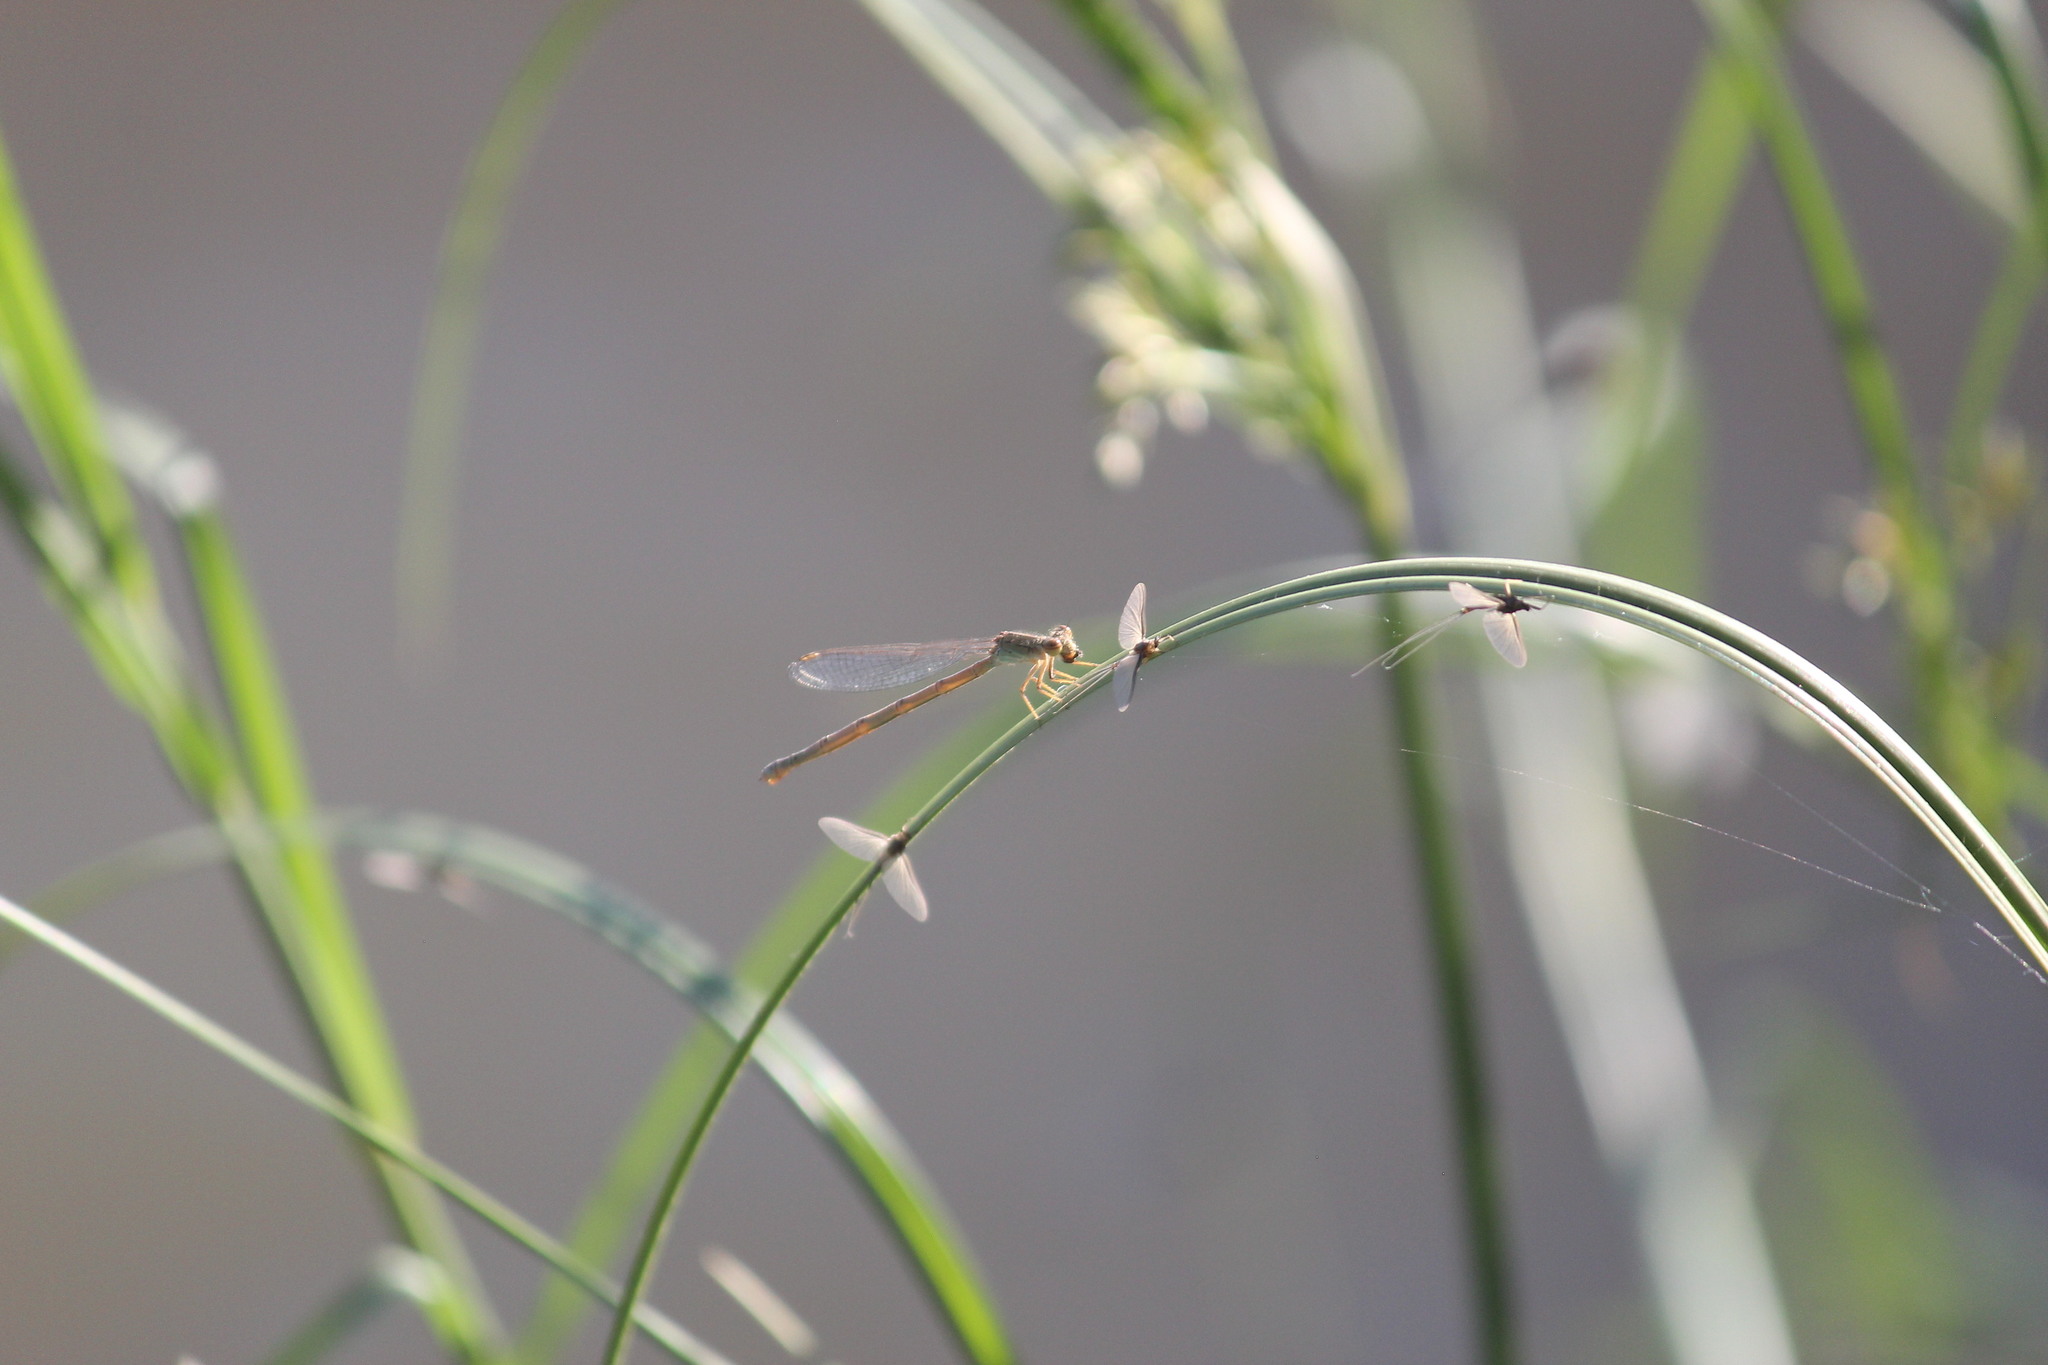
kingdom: Animalia
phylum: Arthropoda
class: Insecta
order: Odonata
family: Coenagrionidae
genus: Pseudagrion
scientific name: Pseudagrion sublacteum
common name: Cherry-eye sprite
